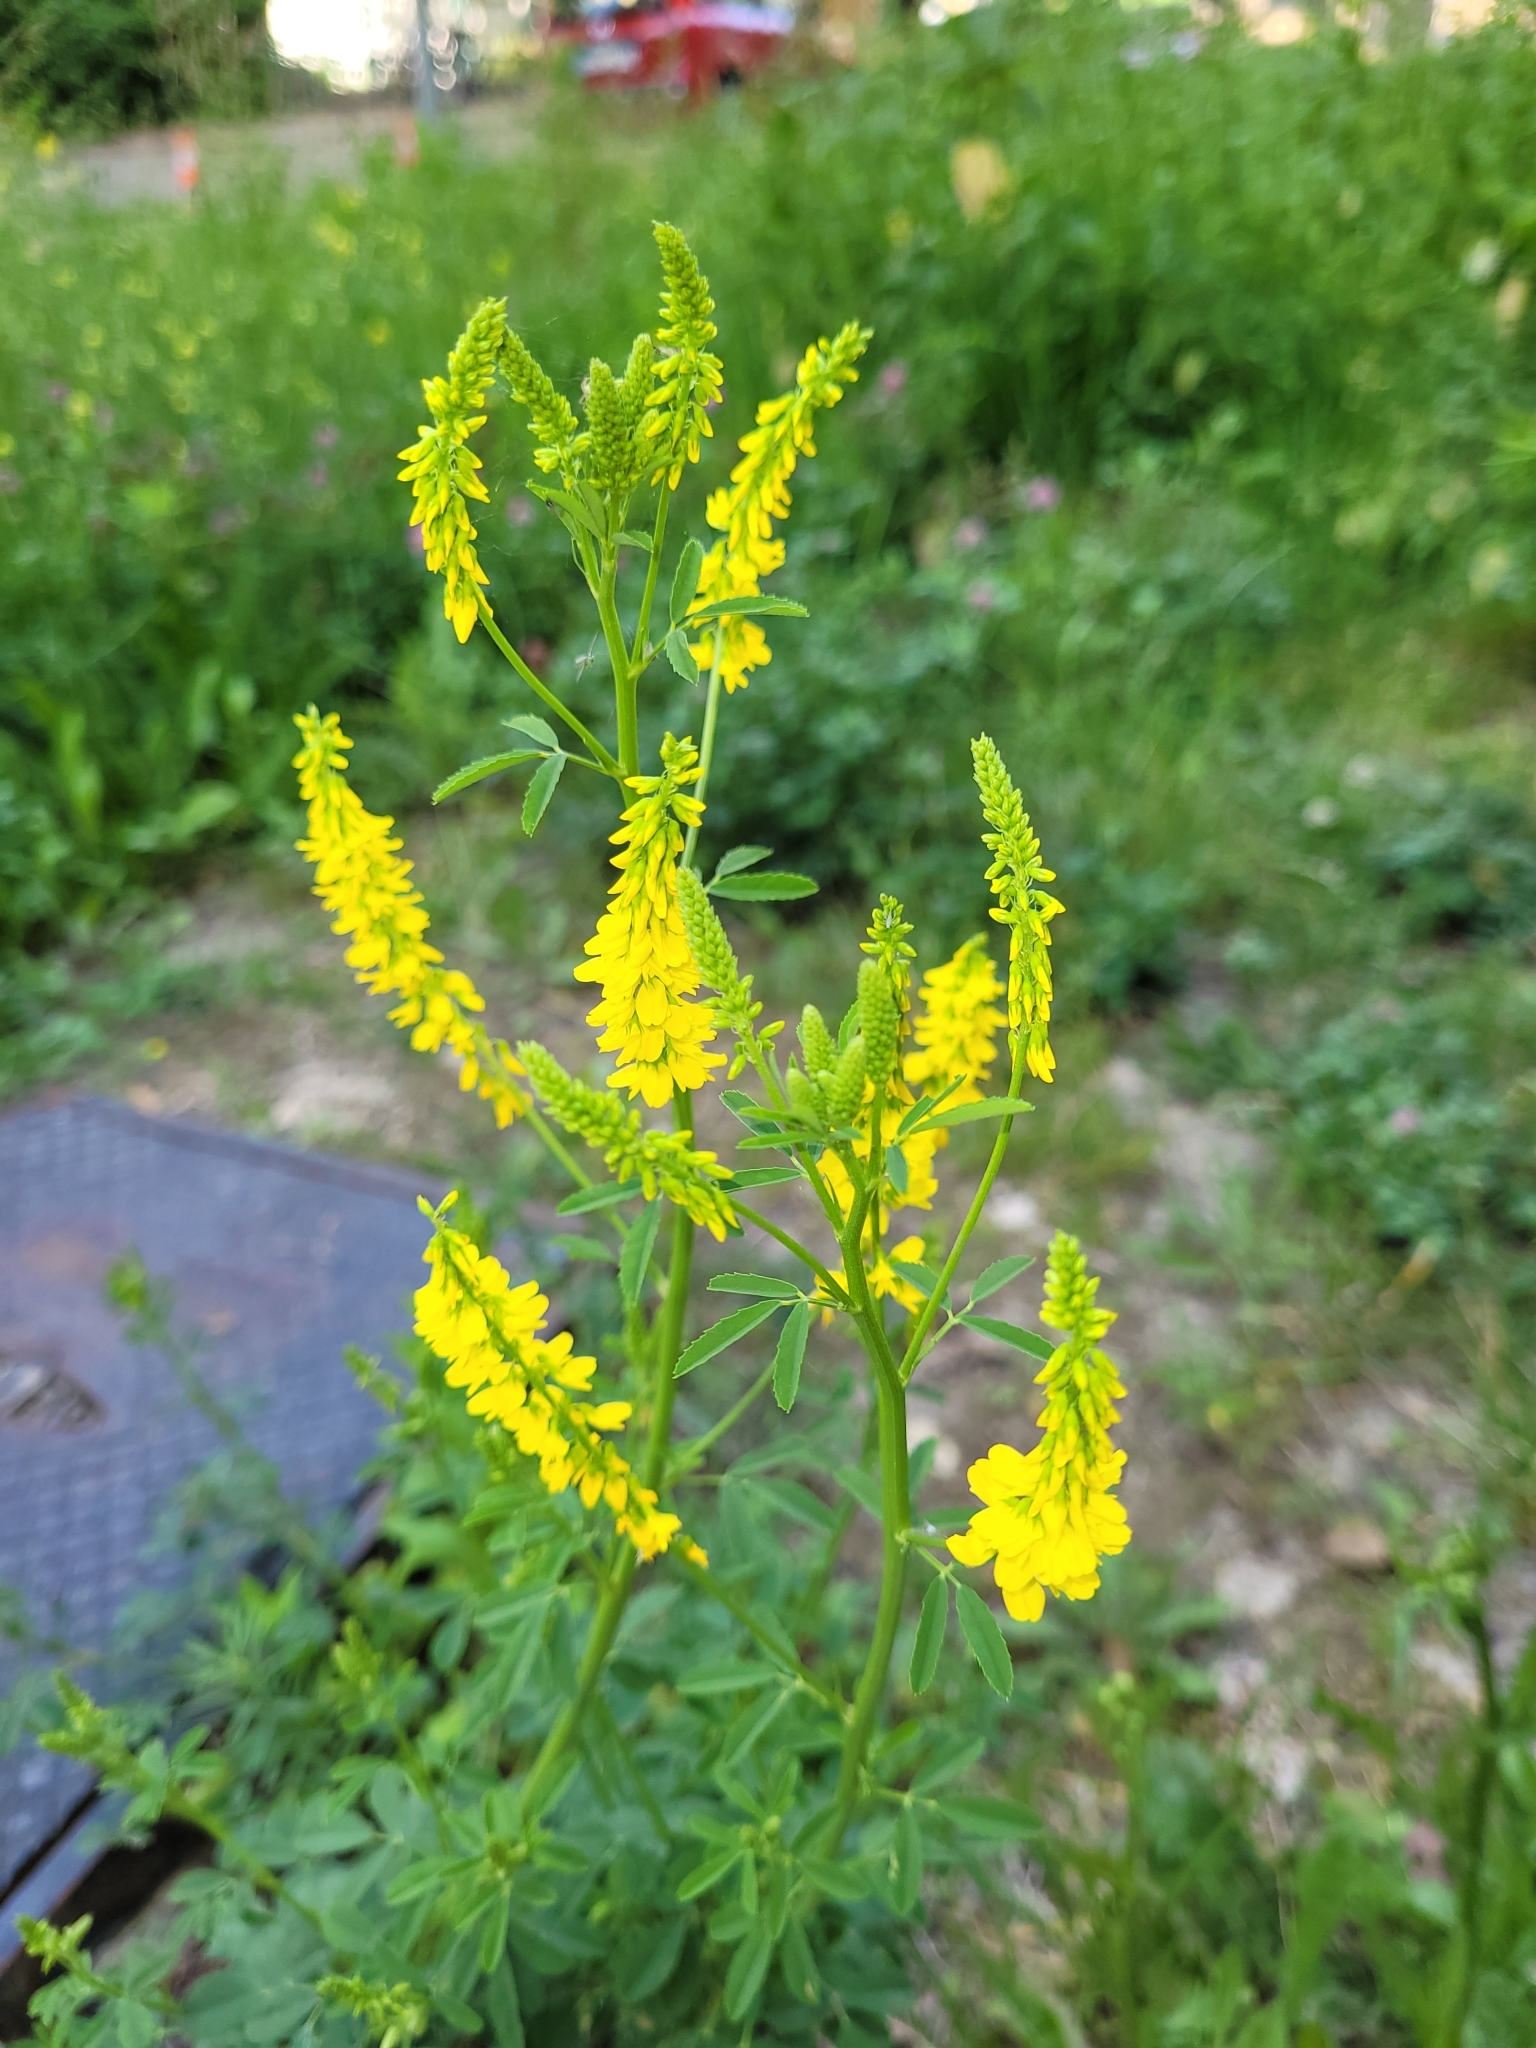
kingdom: Plantae
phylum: Tracheophyta
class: Magnoliopsida
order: Fabales
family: Fabaceae
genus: Melilotus
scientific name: Melilotus officinalis
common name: Sweetclover
